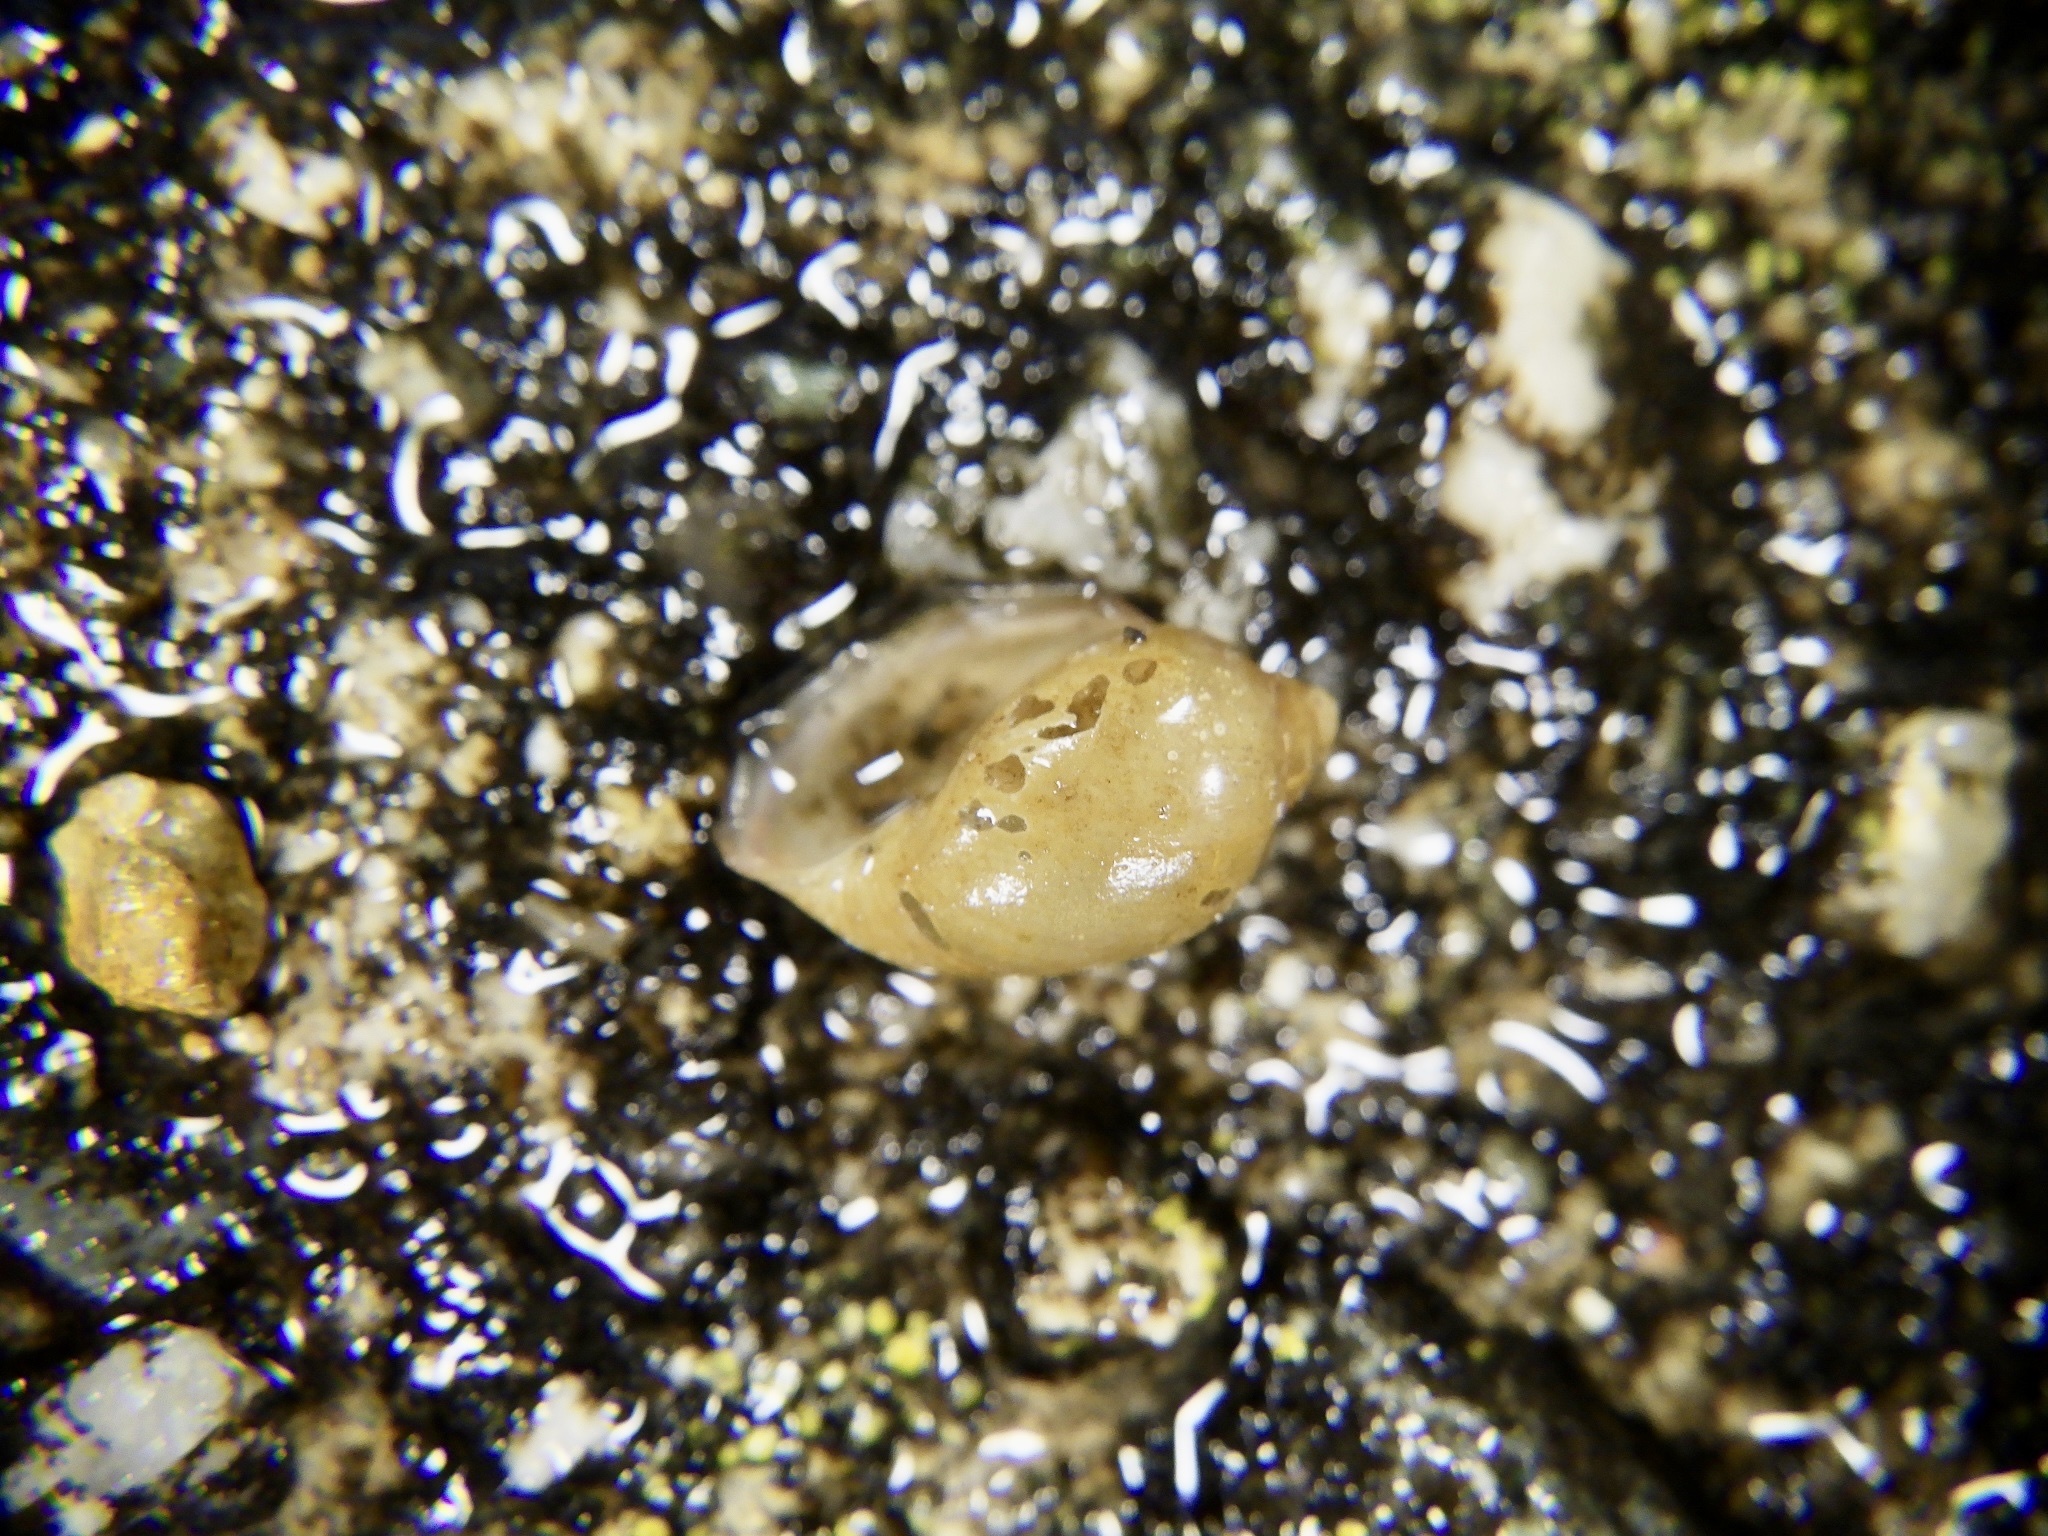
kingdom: Animalia
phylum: Mollusca
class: Gastropoda
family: Physidae
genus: Physella
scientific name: Physella acuta
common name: European physa
